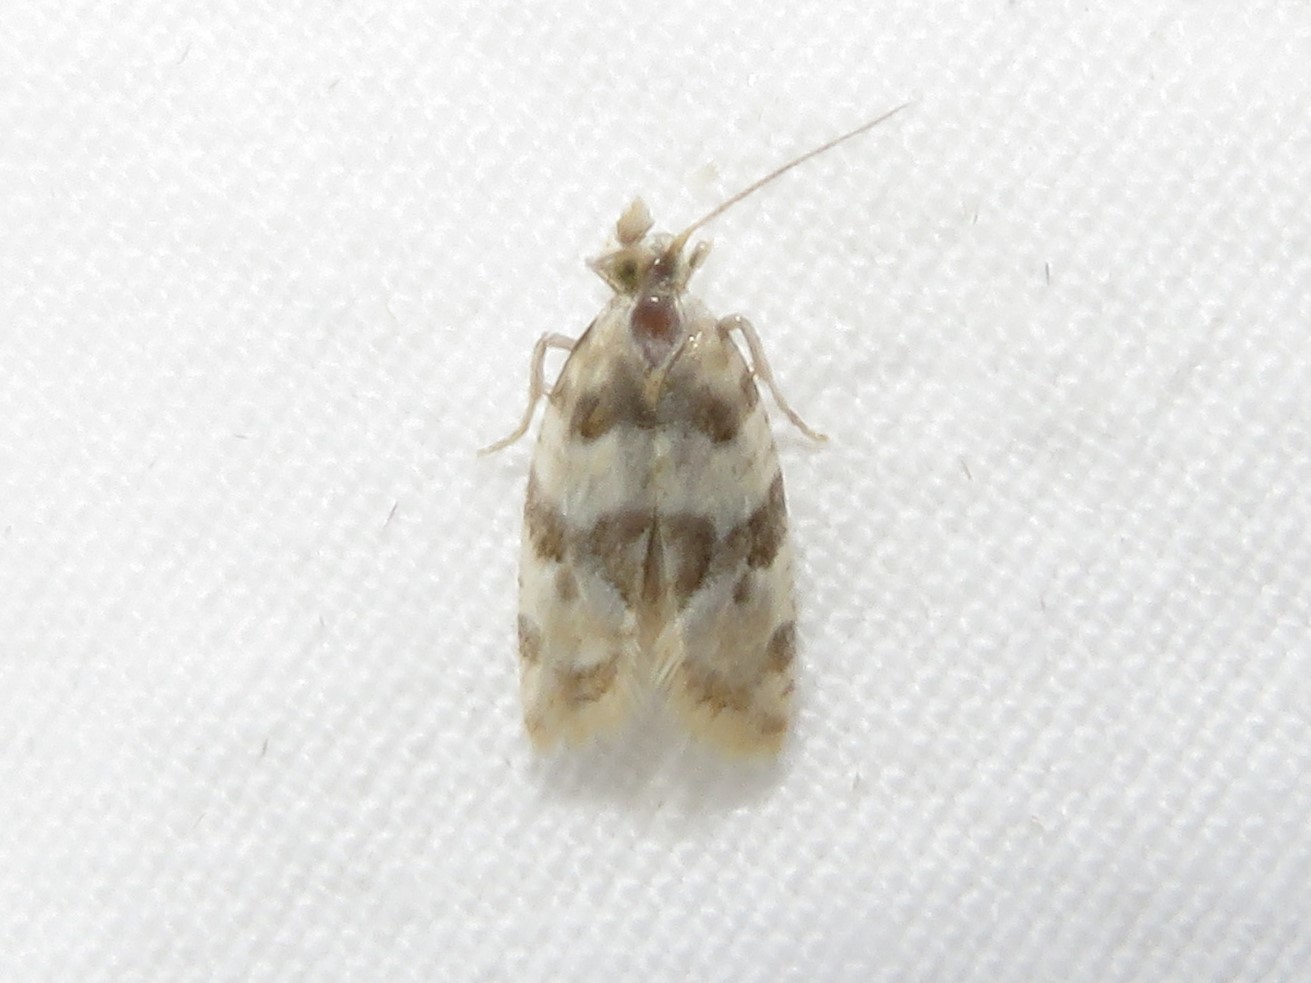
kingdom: Animalia
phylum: Arthropoda
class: Insecta
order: Lepidoptera
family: Tortricidae
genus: Aethes
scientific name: Aethes argentilimitana
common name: Silver-bordered aethes
